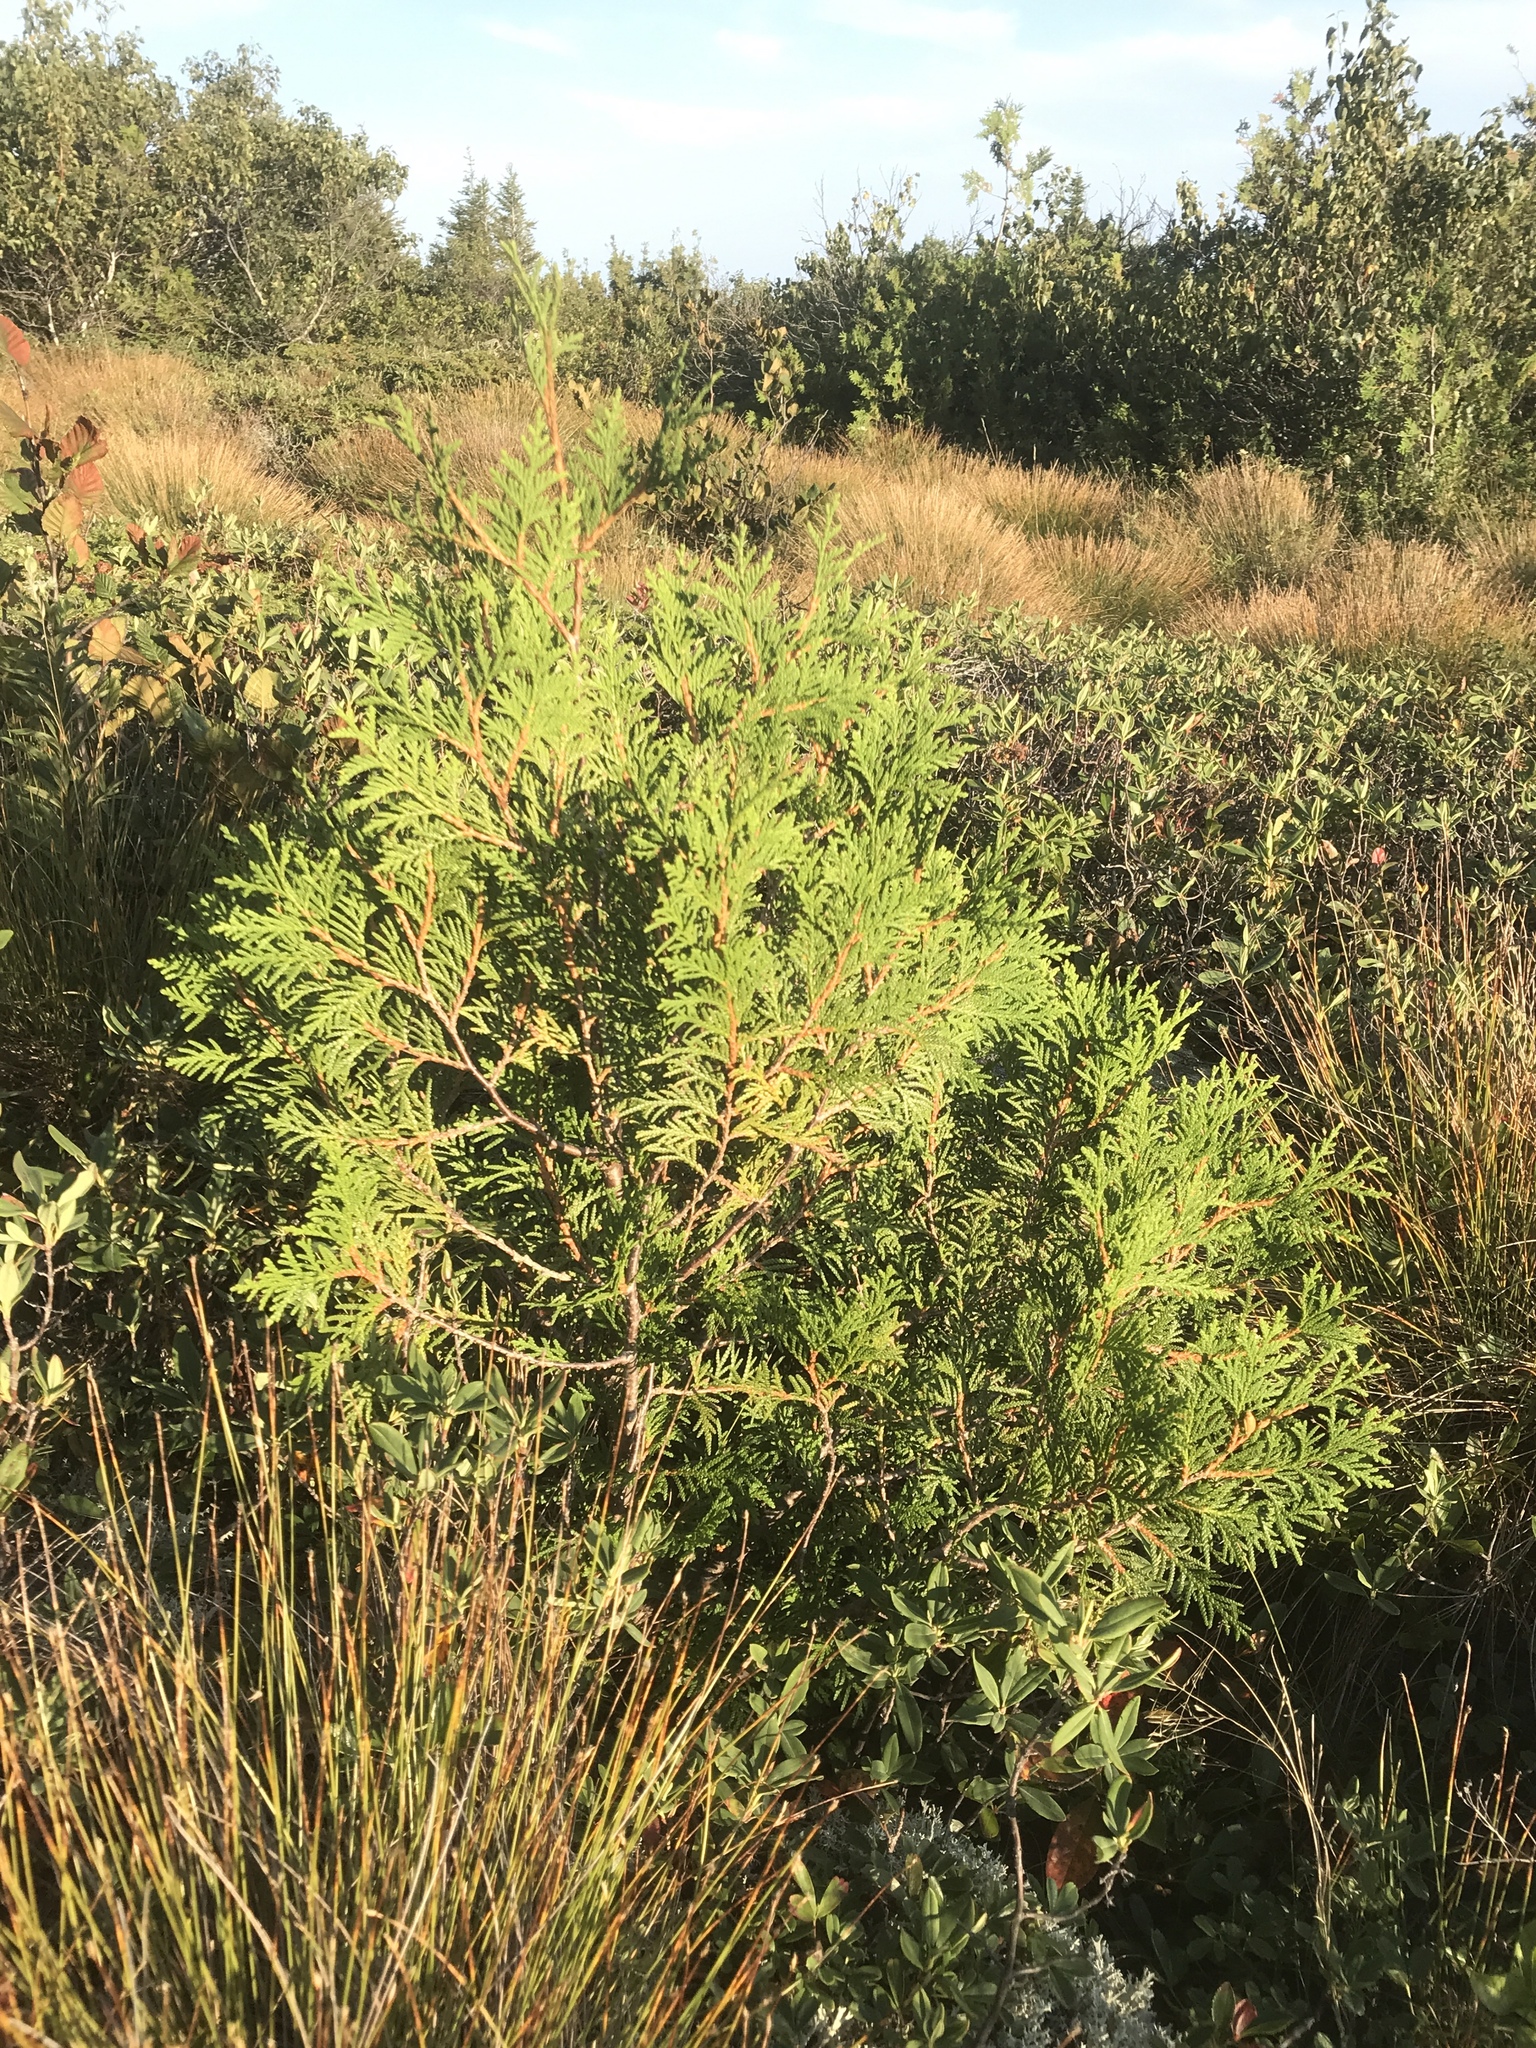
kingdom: Plantae
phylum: Tracheophyta
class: Pinopsida
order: Pinales
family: Cupressaceae
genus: Thuja
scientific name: Thuja occidentalis
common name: Northern white-cedar
